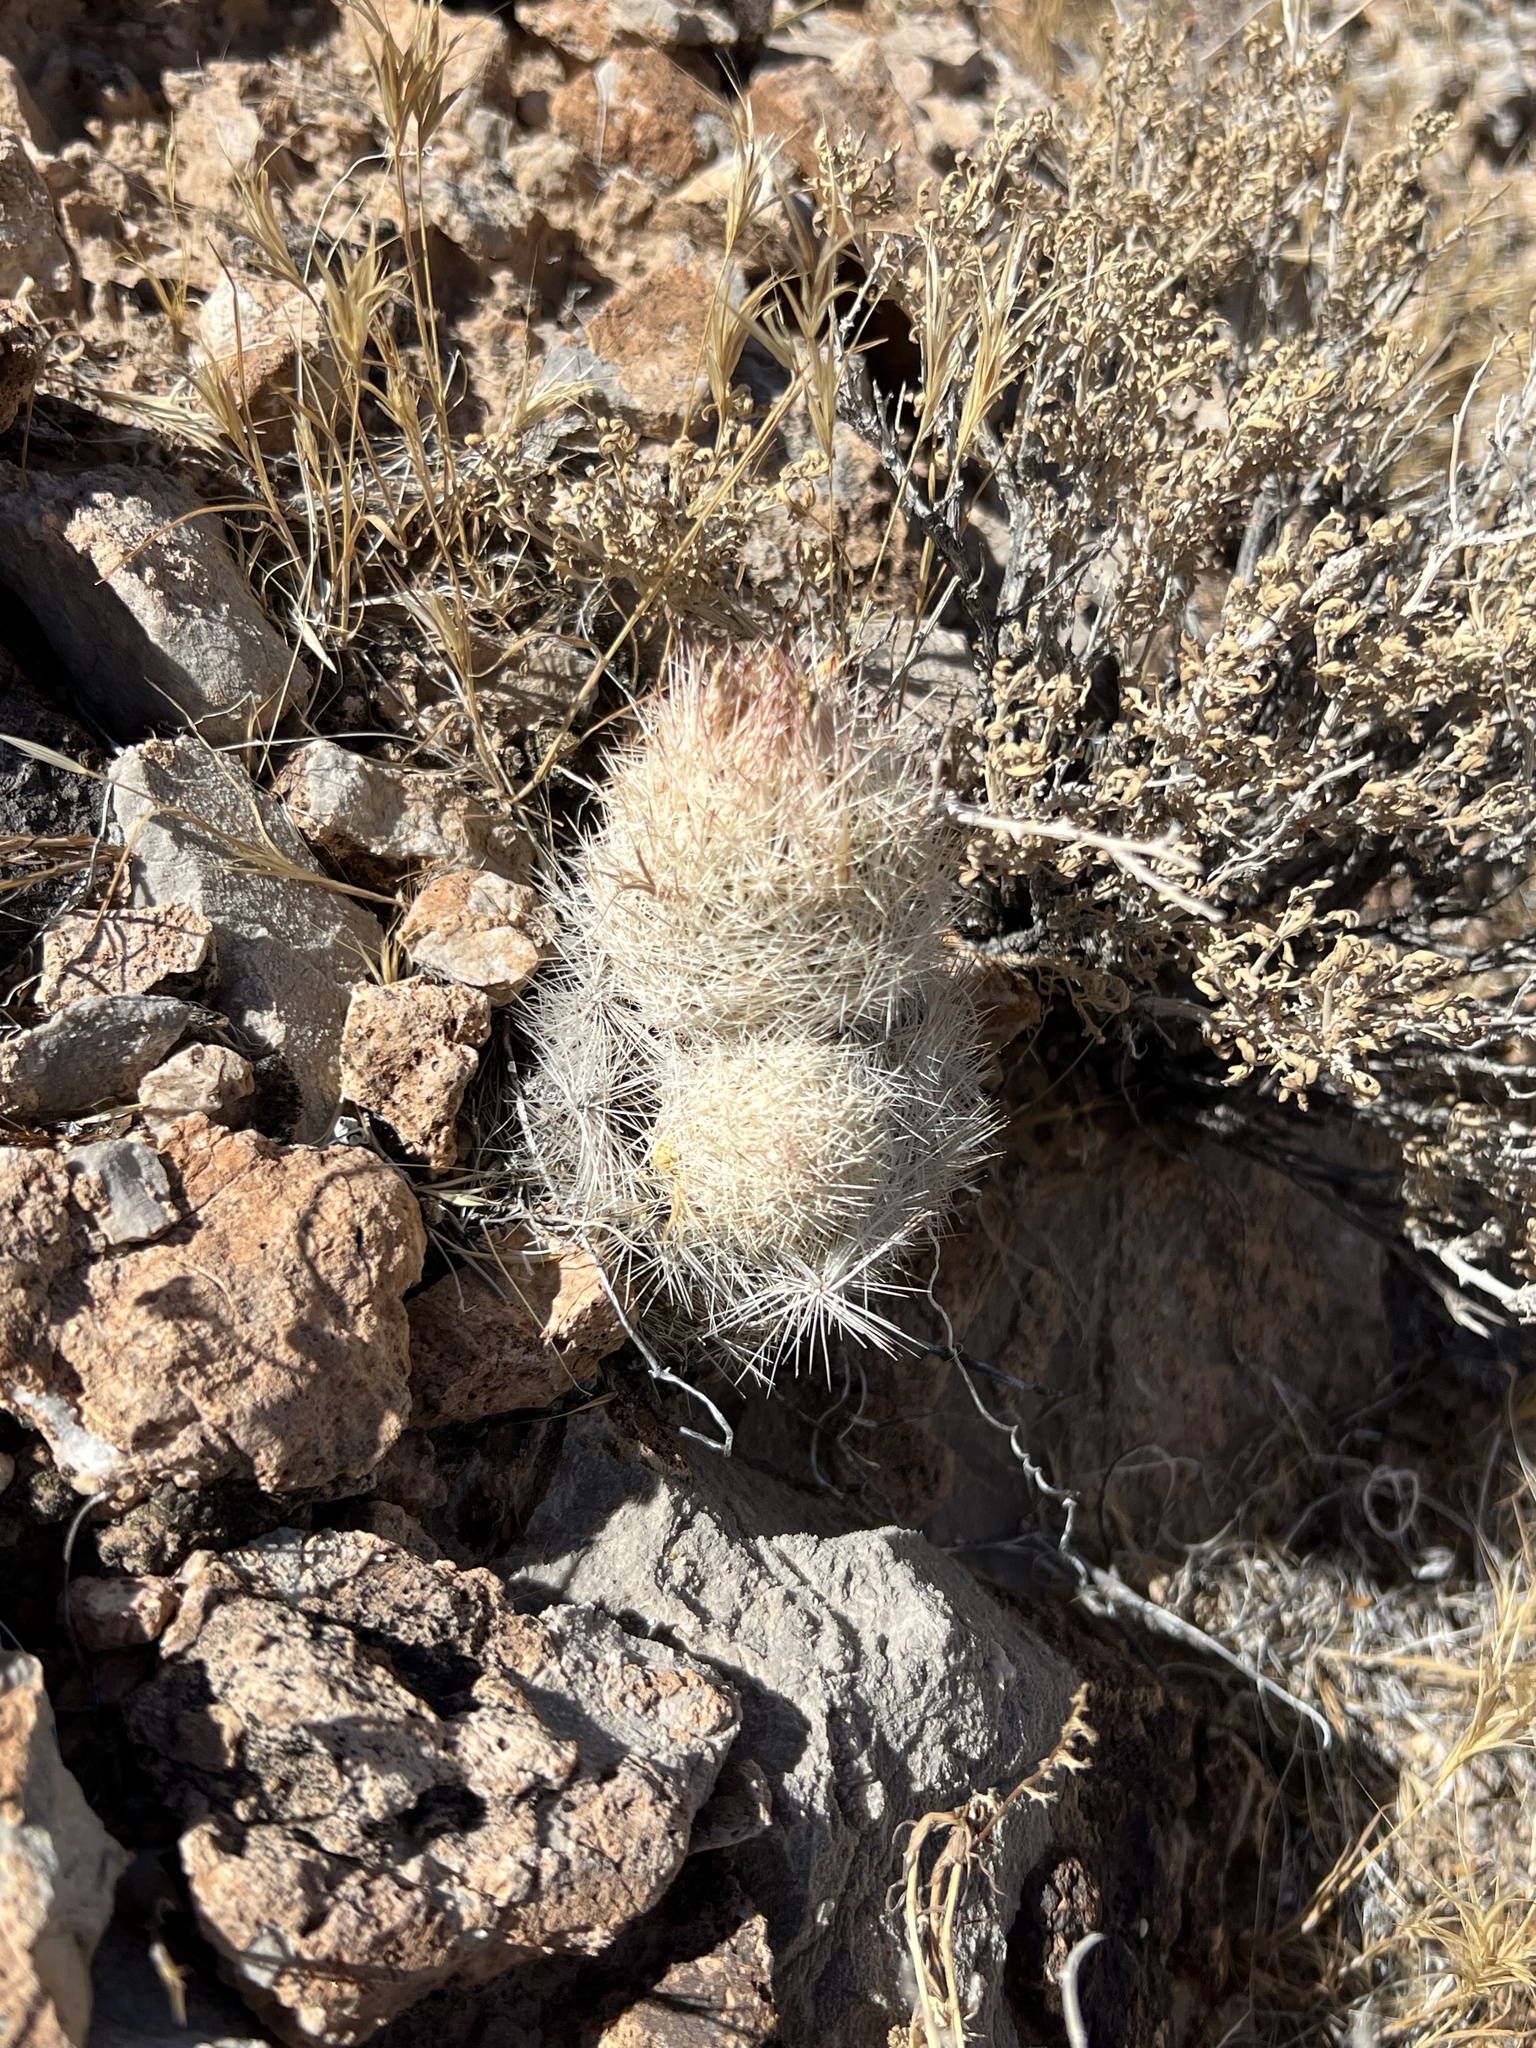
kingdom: Plantae
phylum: Tracheophyta
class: Magnoliopsida
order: Caryophyllales
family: Cactaceae
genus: Pelecyphora
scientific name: Pelecyphora dasyacantha
